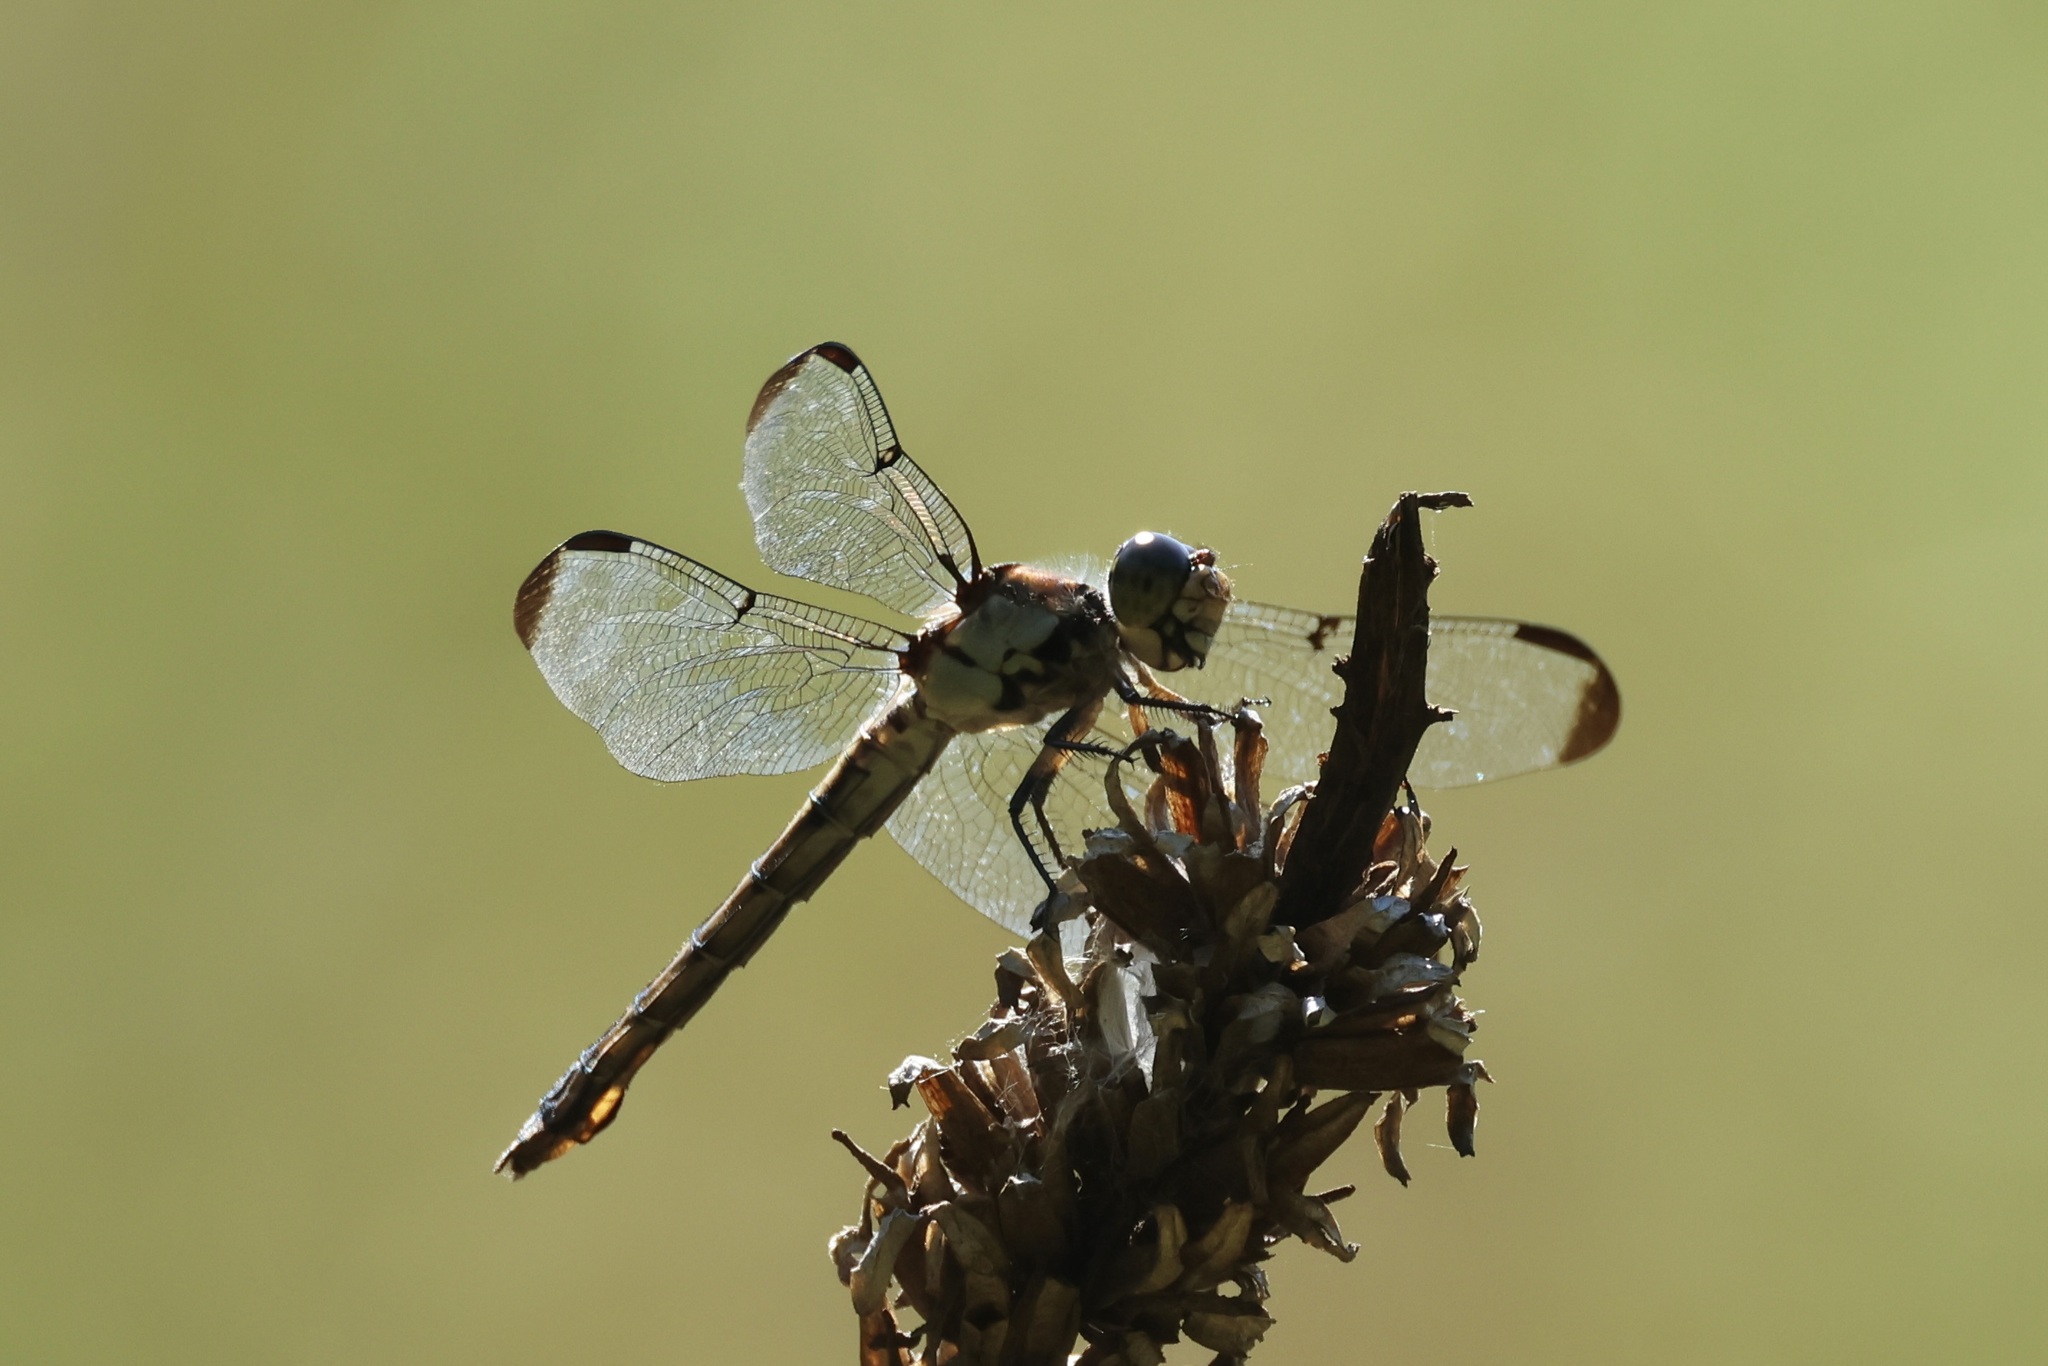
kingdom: Animalia
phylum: Arthropoda
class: Insecta
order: Odonata
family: Libellulidae
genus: Libellula
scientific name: Libellula vibrans
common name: Great blue skimmer
